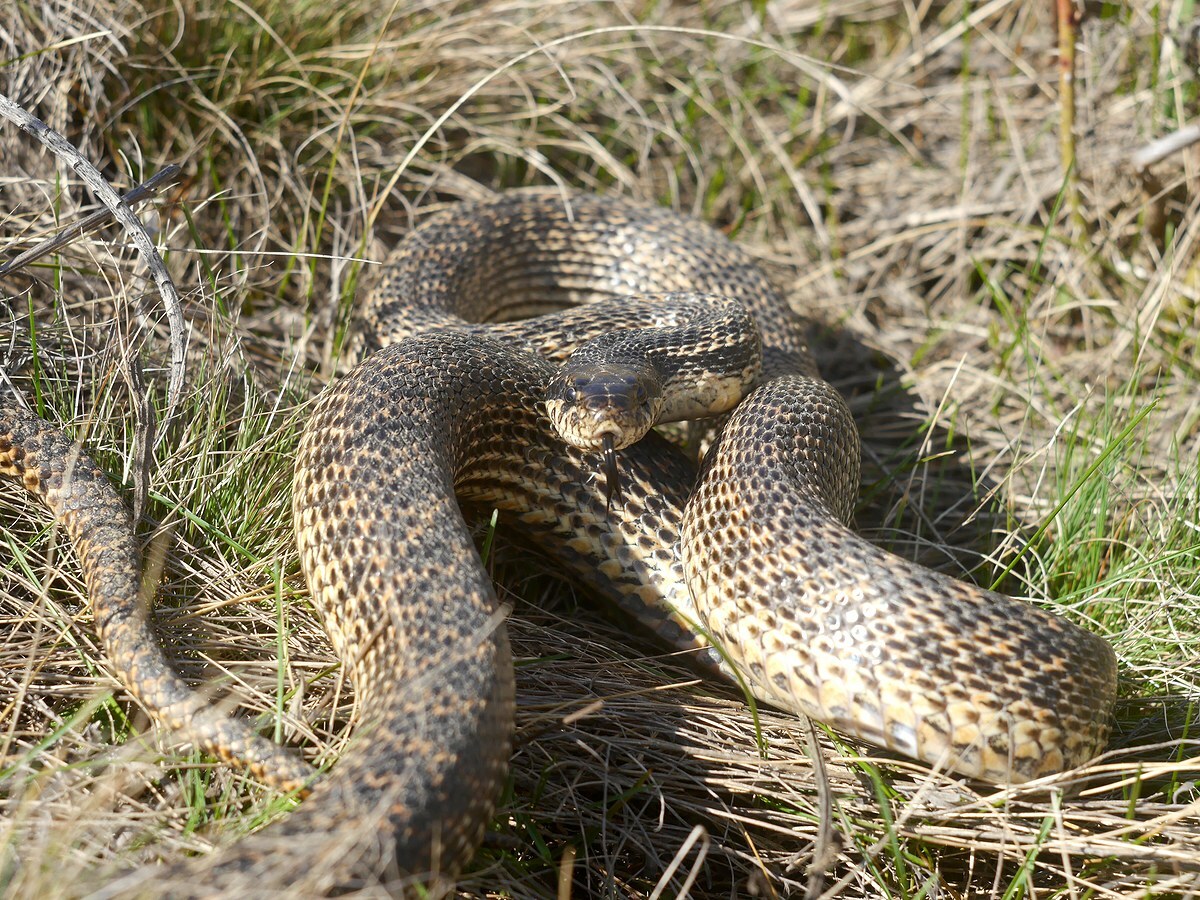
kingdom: Animalia
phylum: Chordata
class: Squamata
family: Colubridae
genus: Elaphe
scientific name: Elaphe sauromates
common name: Eastern four-lined ratsnake
